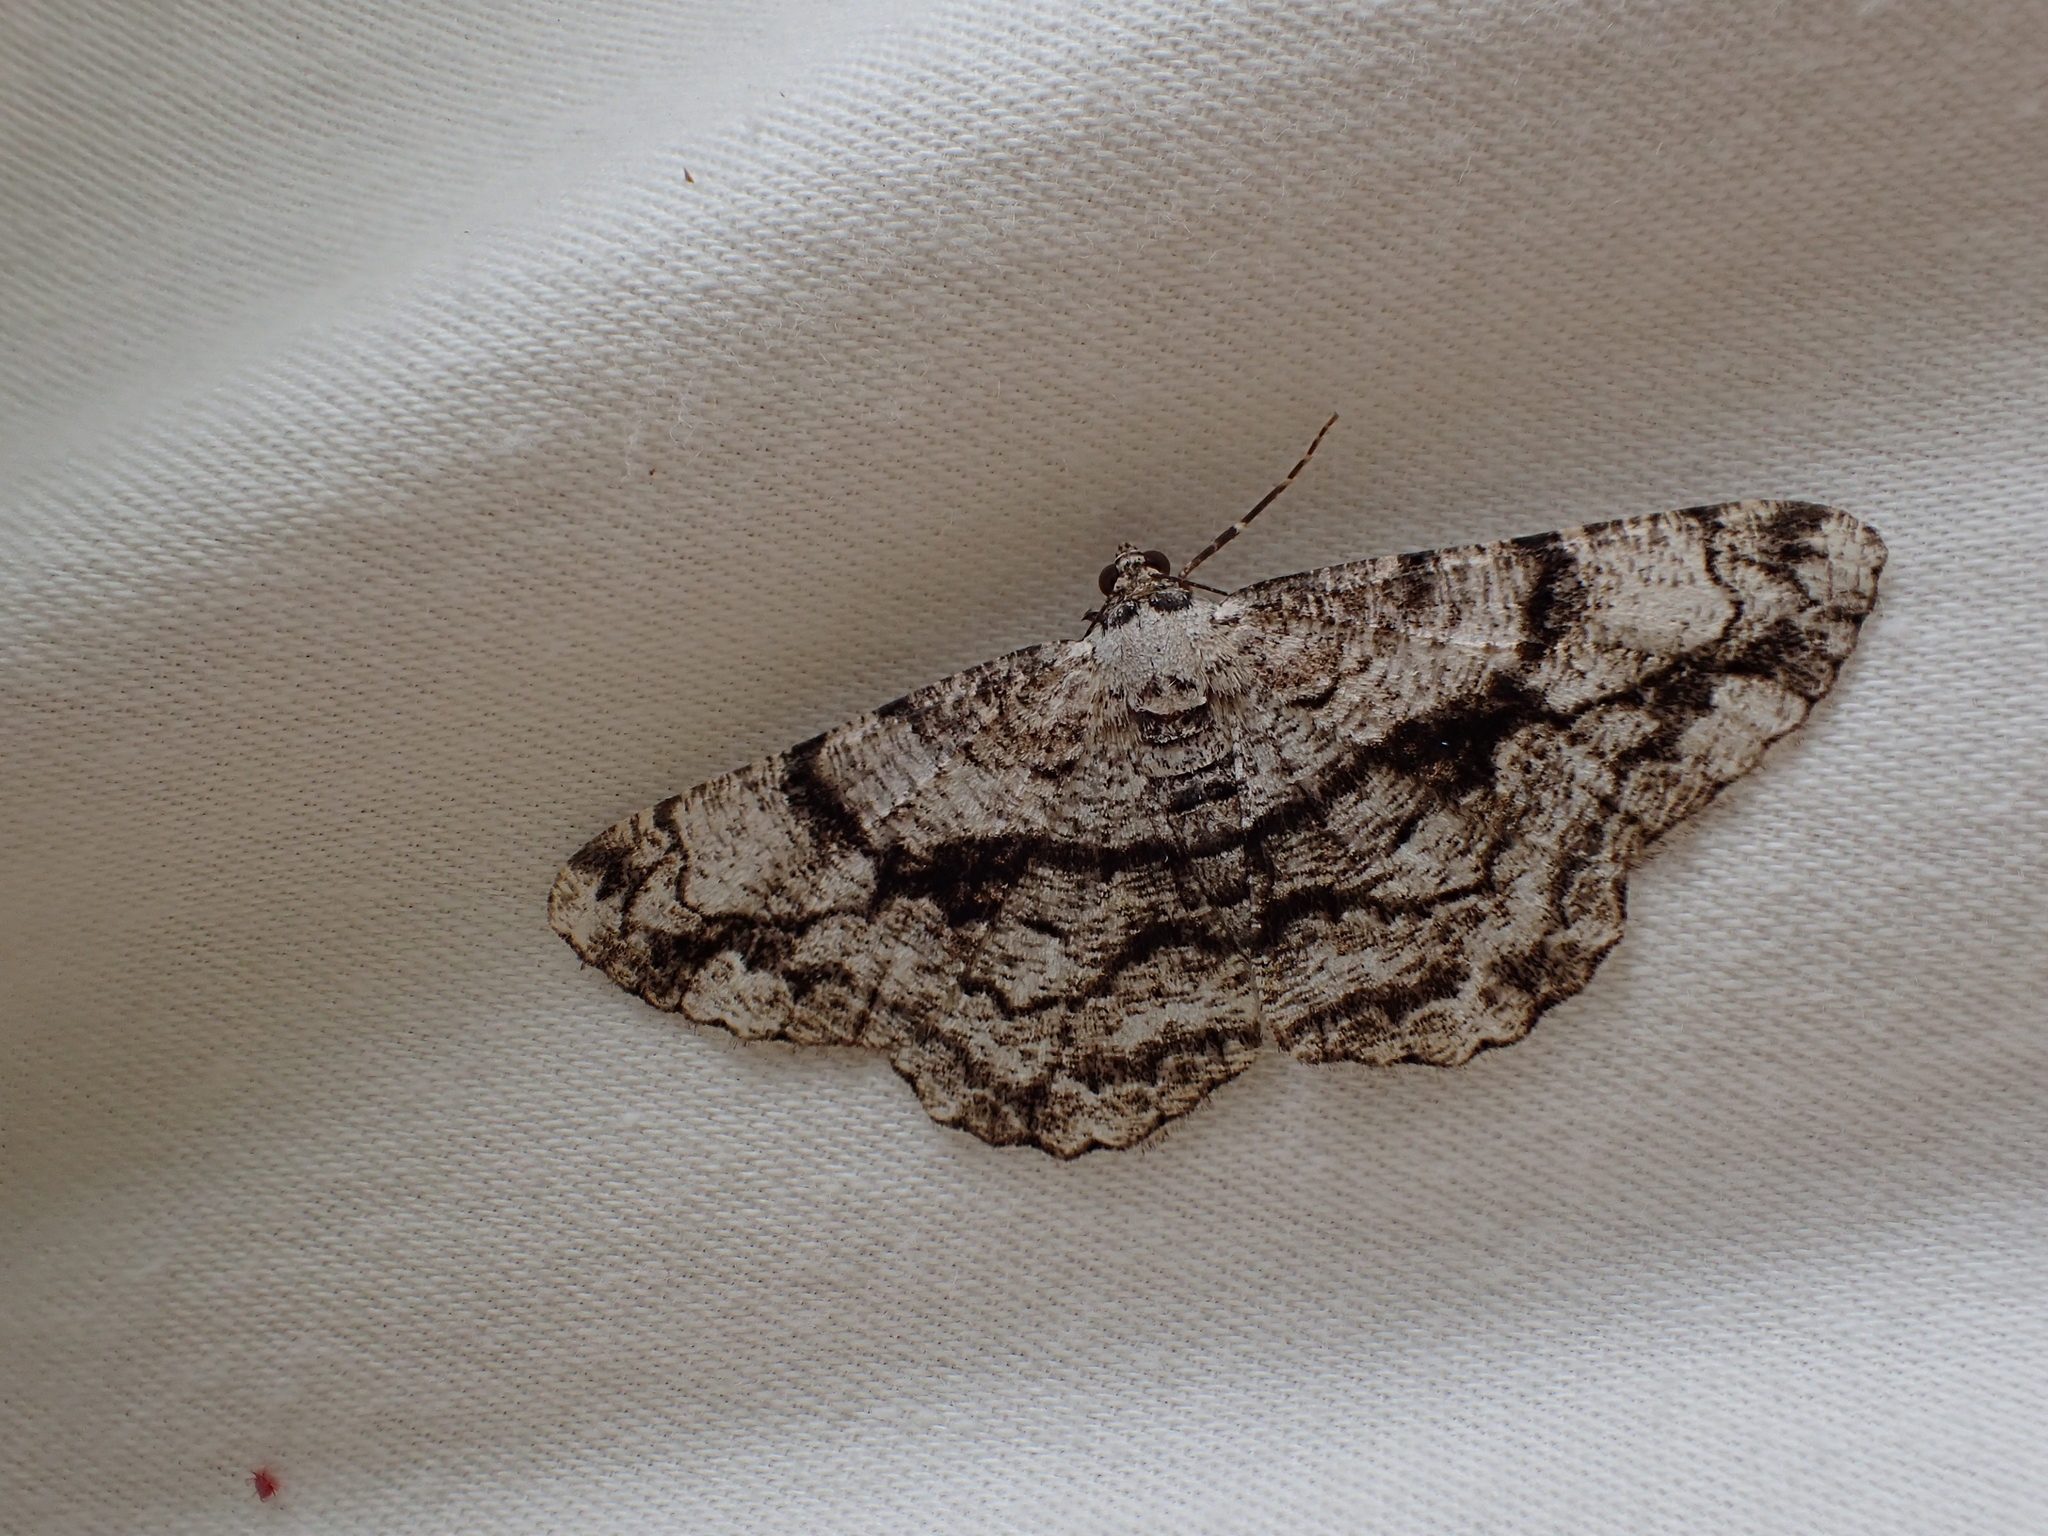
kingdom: Animalia
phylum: Arthropoda
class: Insecta
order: Lepidoptera
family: Geometridae
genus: Peribatodes
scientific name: Peribatodes umbraria
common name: Olive-tree beauty
